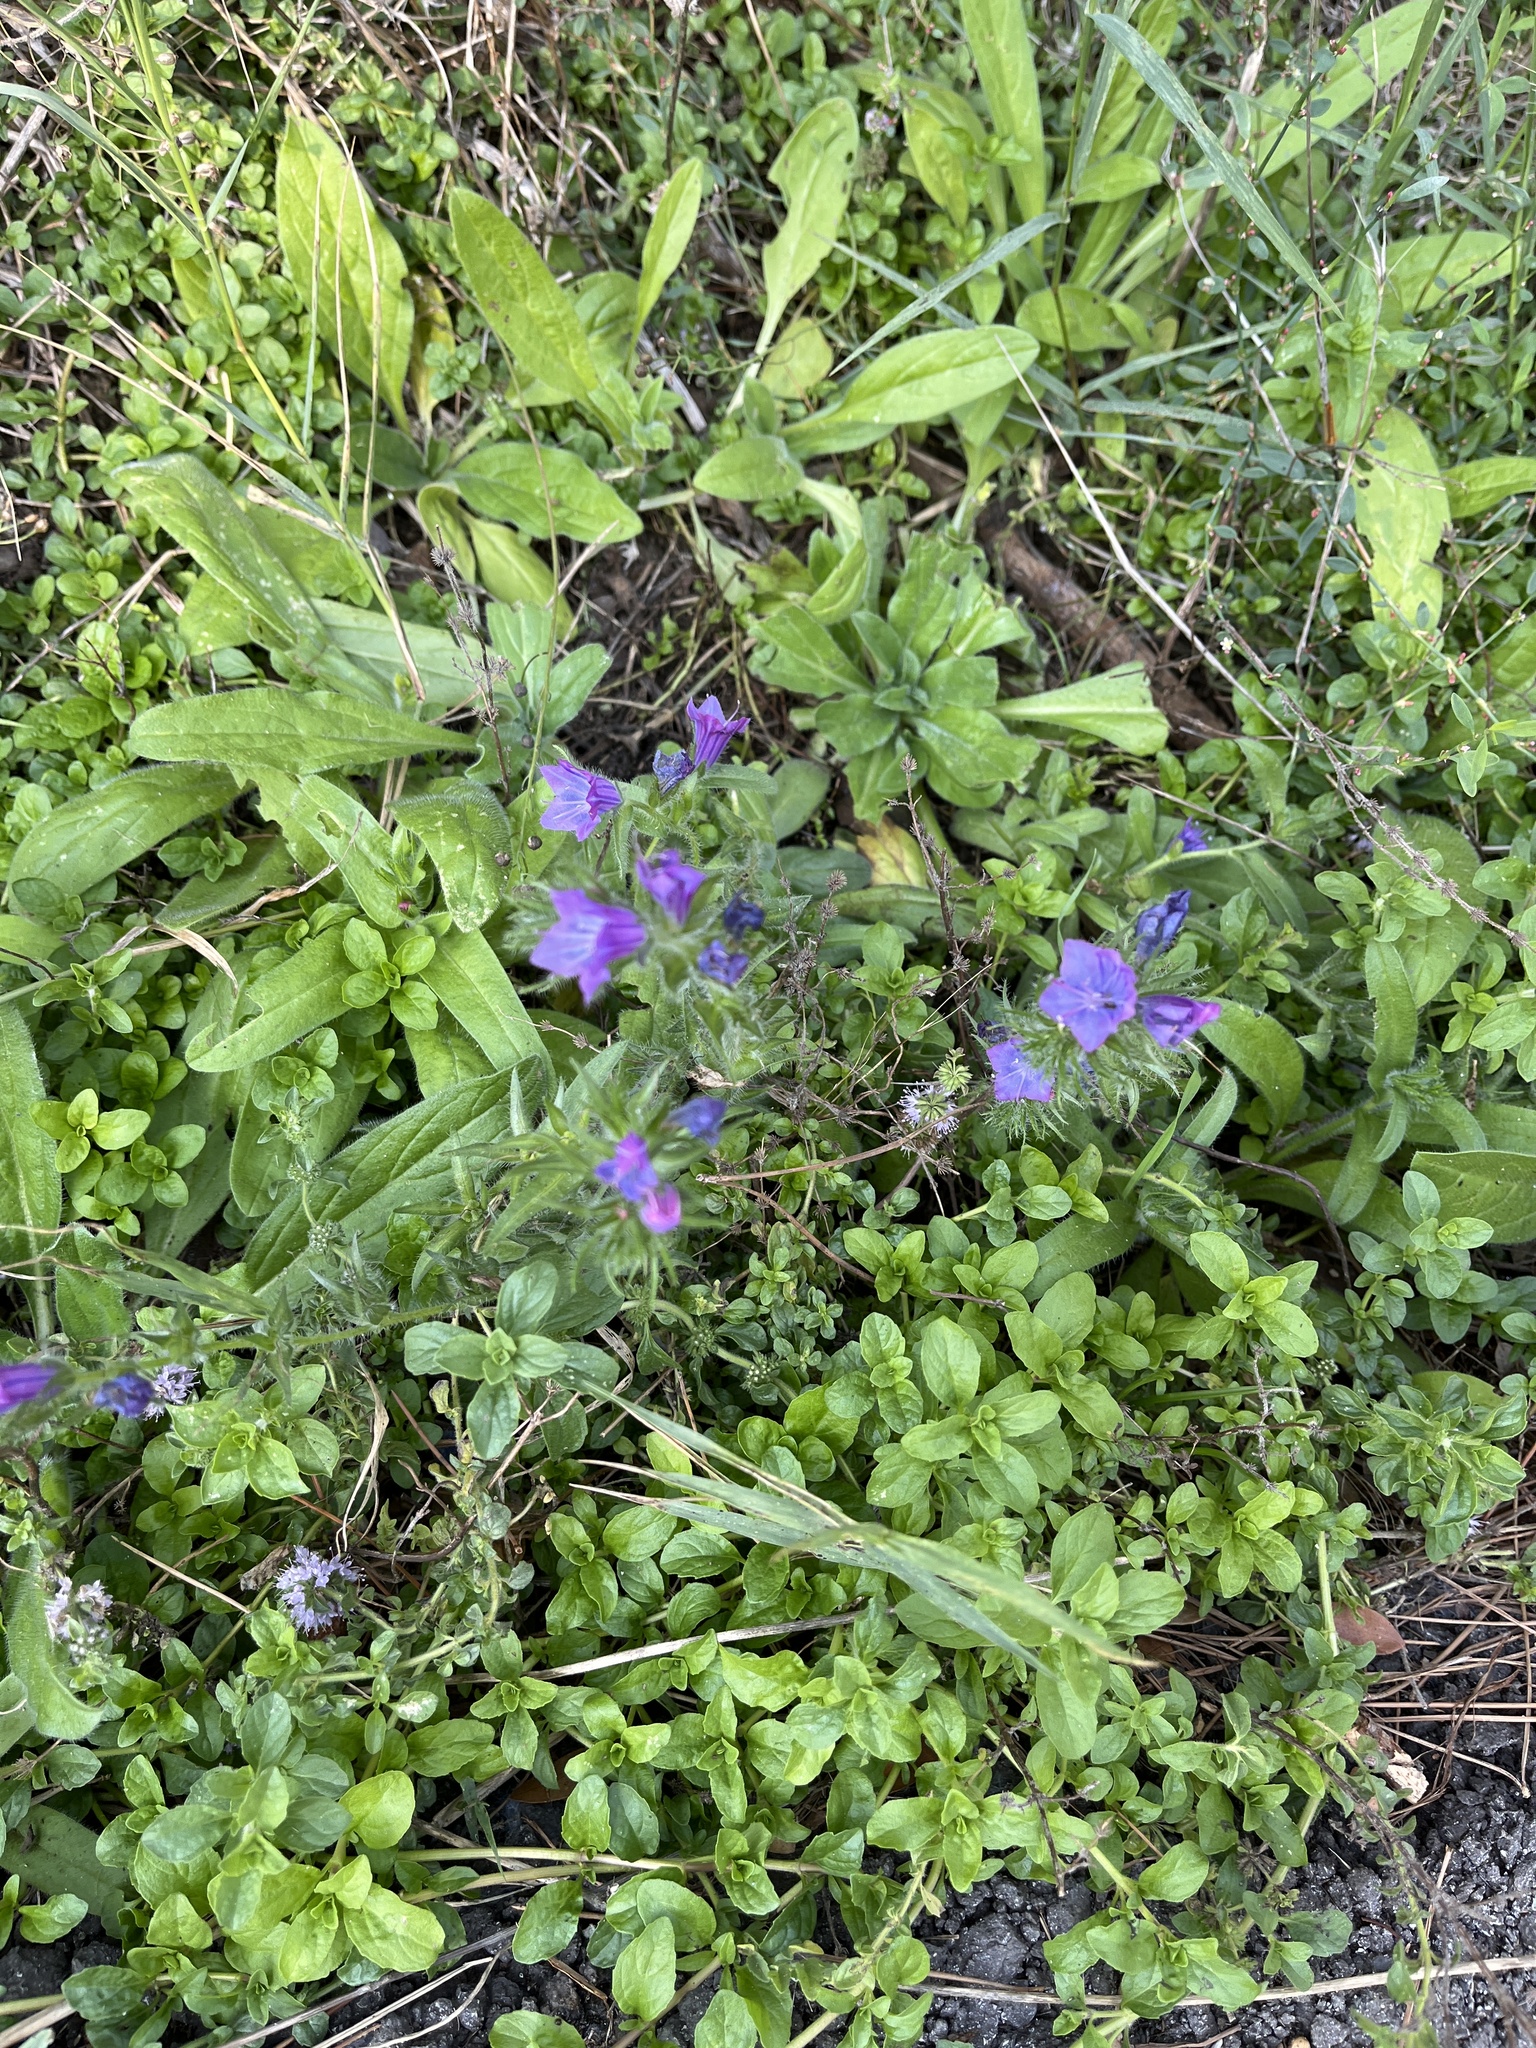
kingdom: Plantae
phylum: Tracheophyta
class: Magnoliopsida
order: Boraginales
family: Boraginaceae
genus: Echium
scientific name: Echium plantagineum
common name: Purple viper's-bugloss
